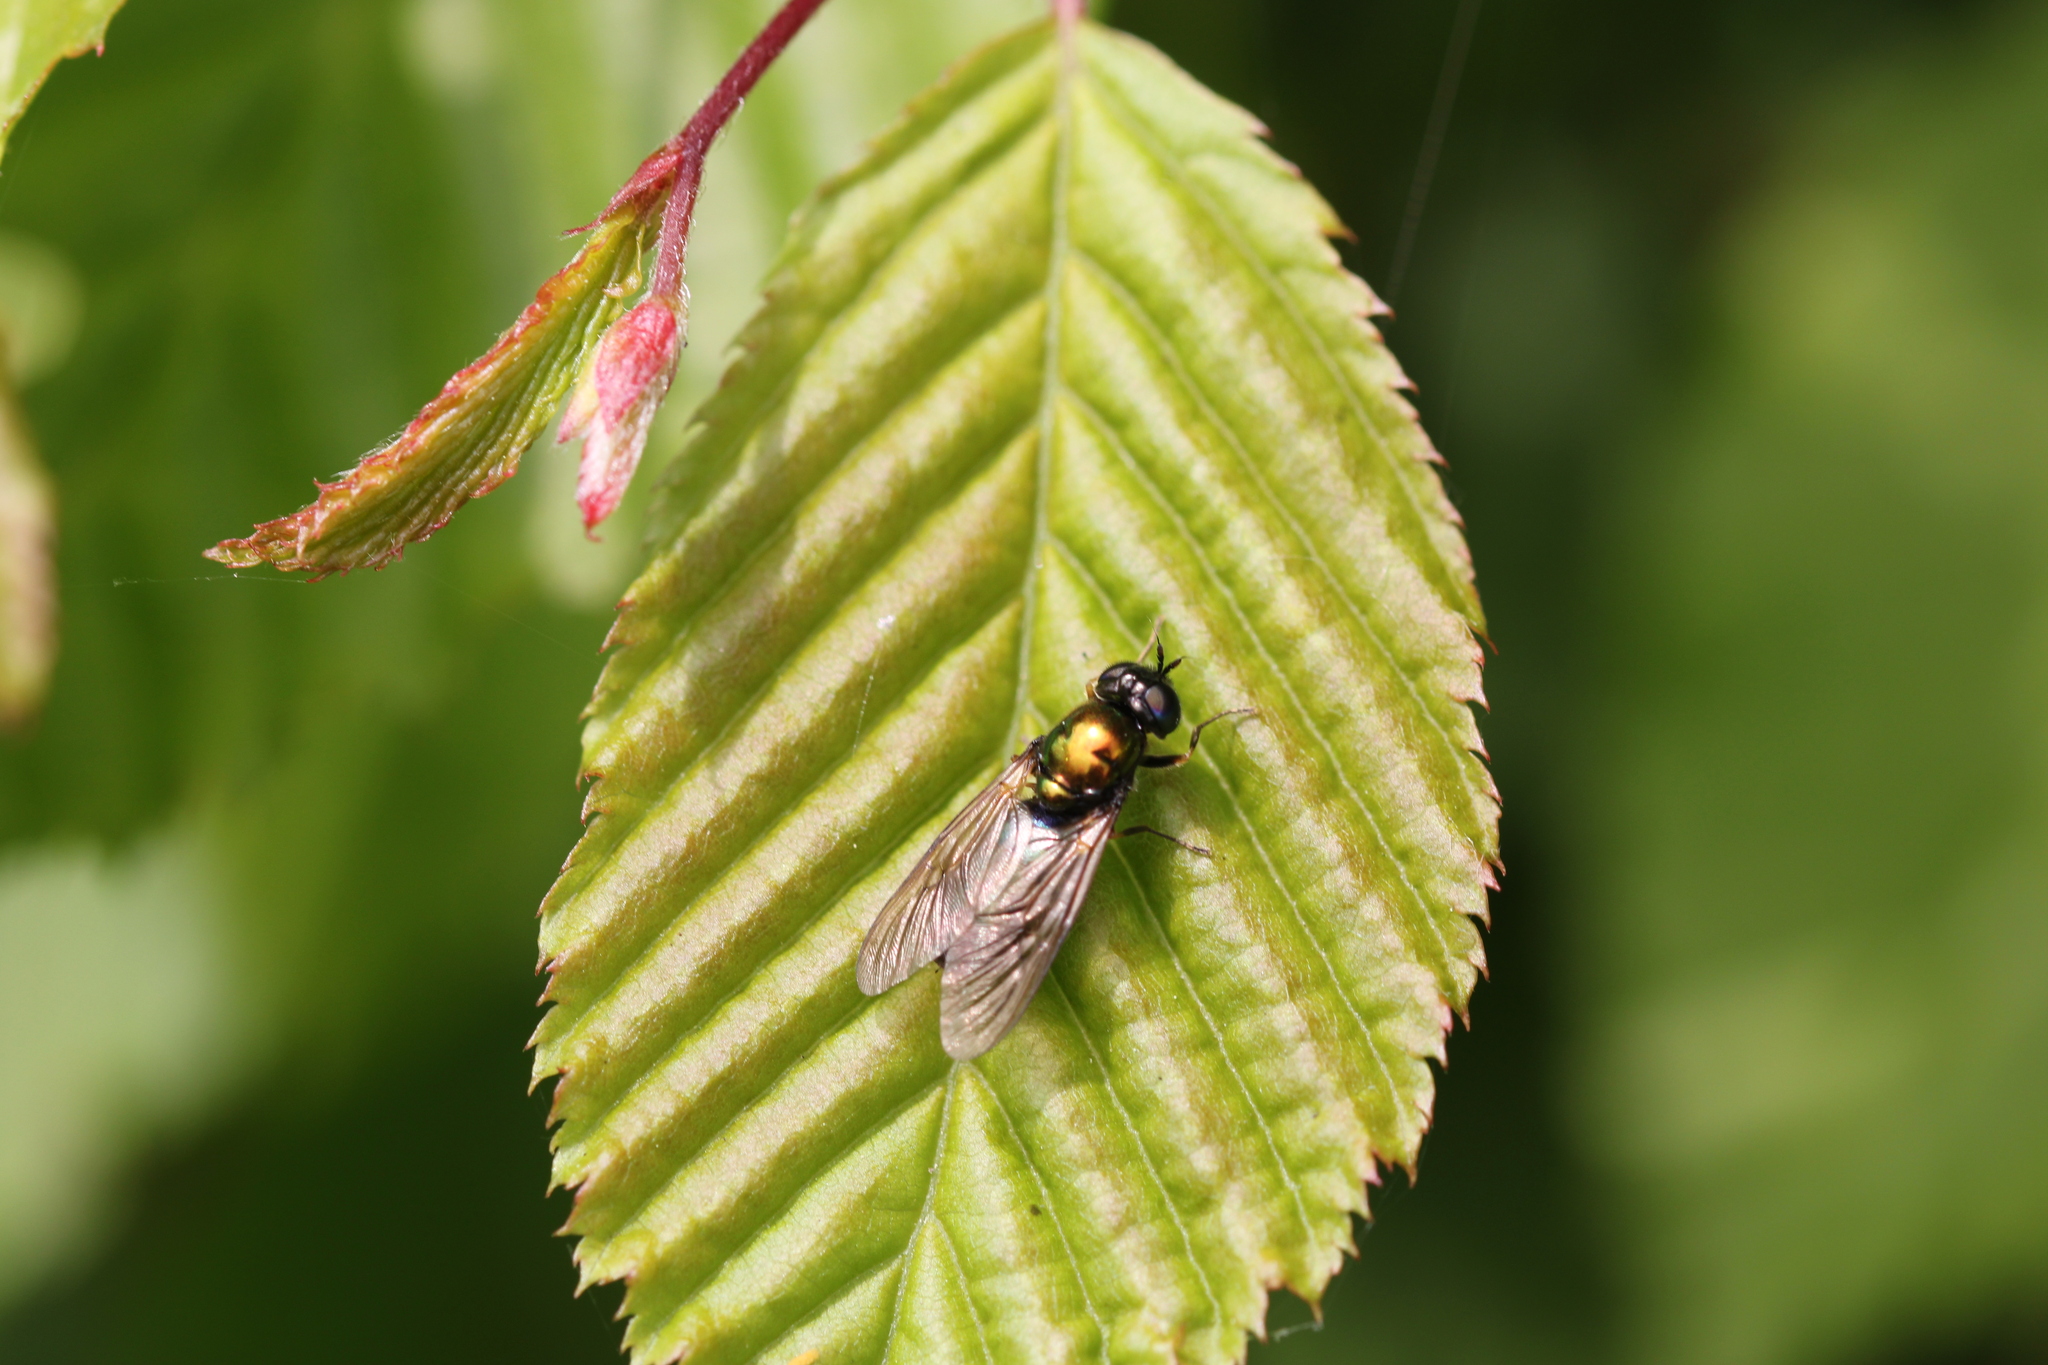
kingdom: Animalia
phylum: Arthropoda
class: Insecta
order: Diptera
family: Stratiomyidae
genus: Chloromyia
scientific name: Chloromyia formosa
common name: Soldier fly
